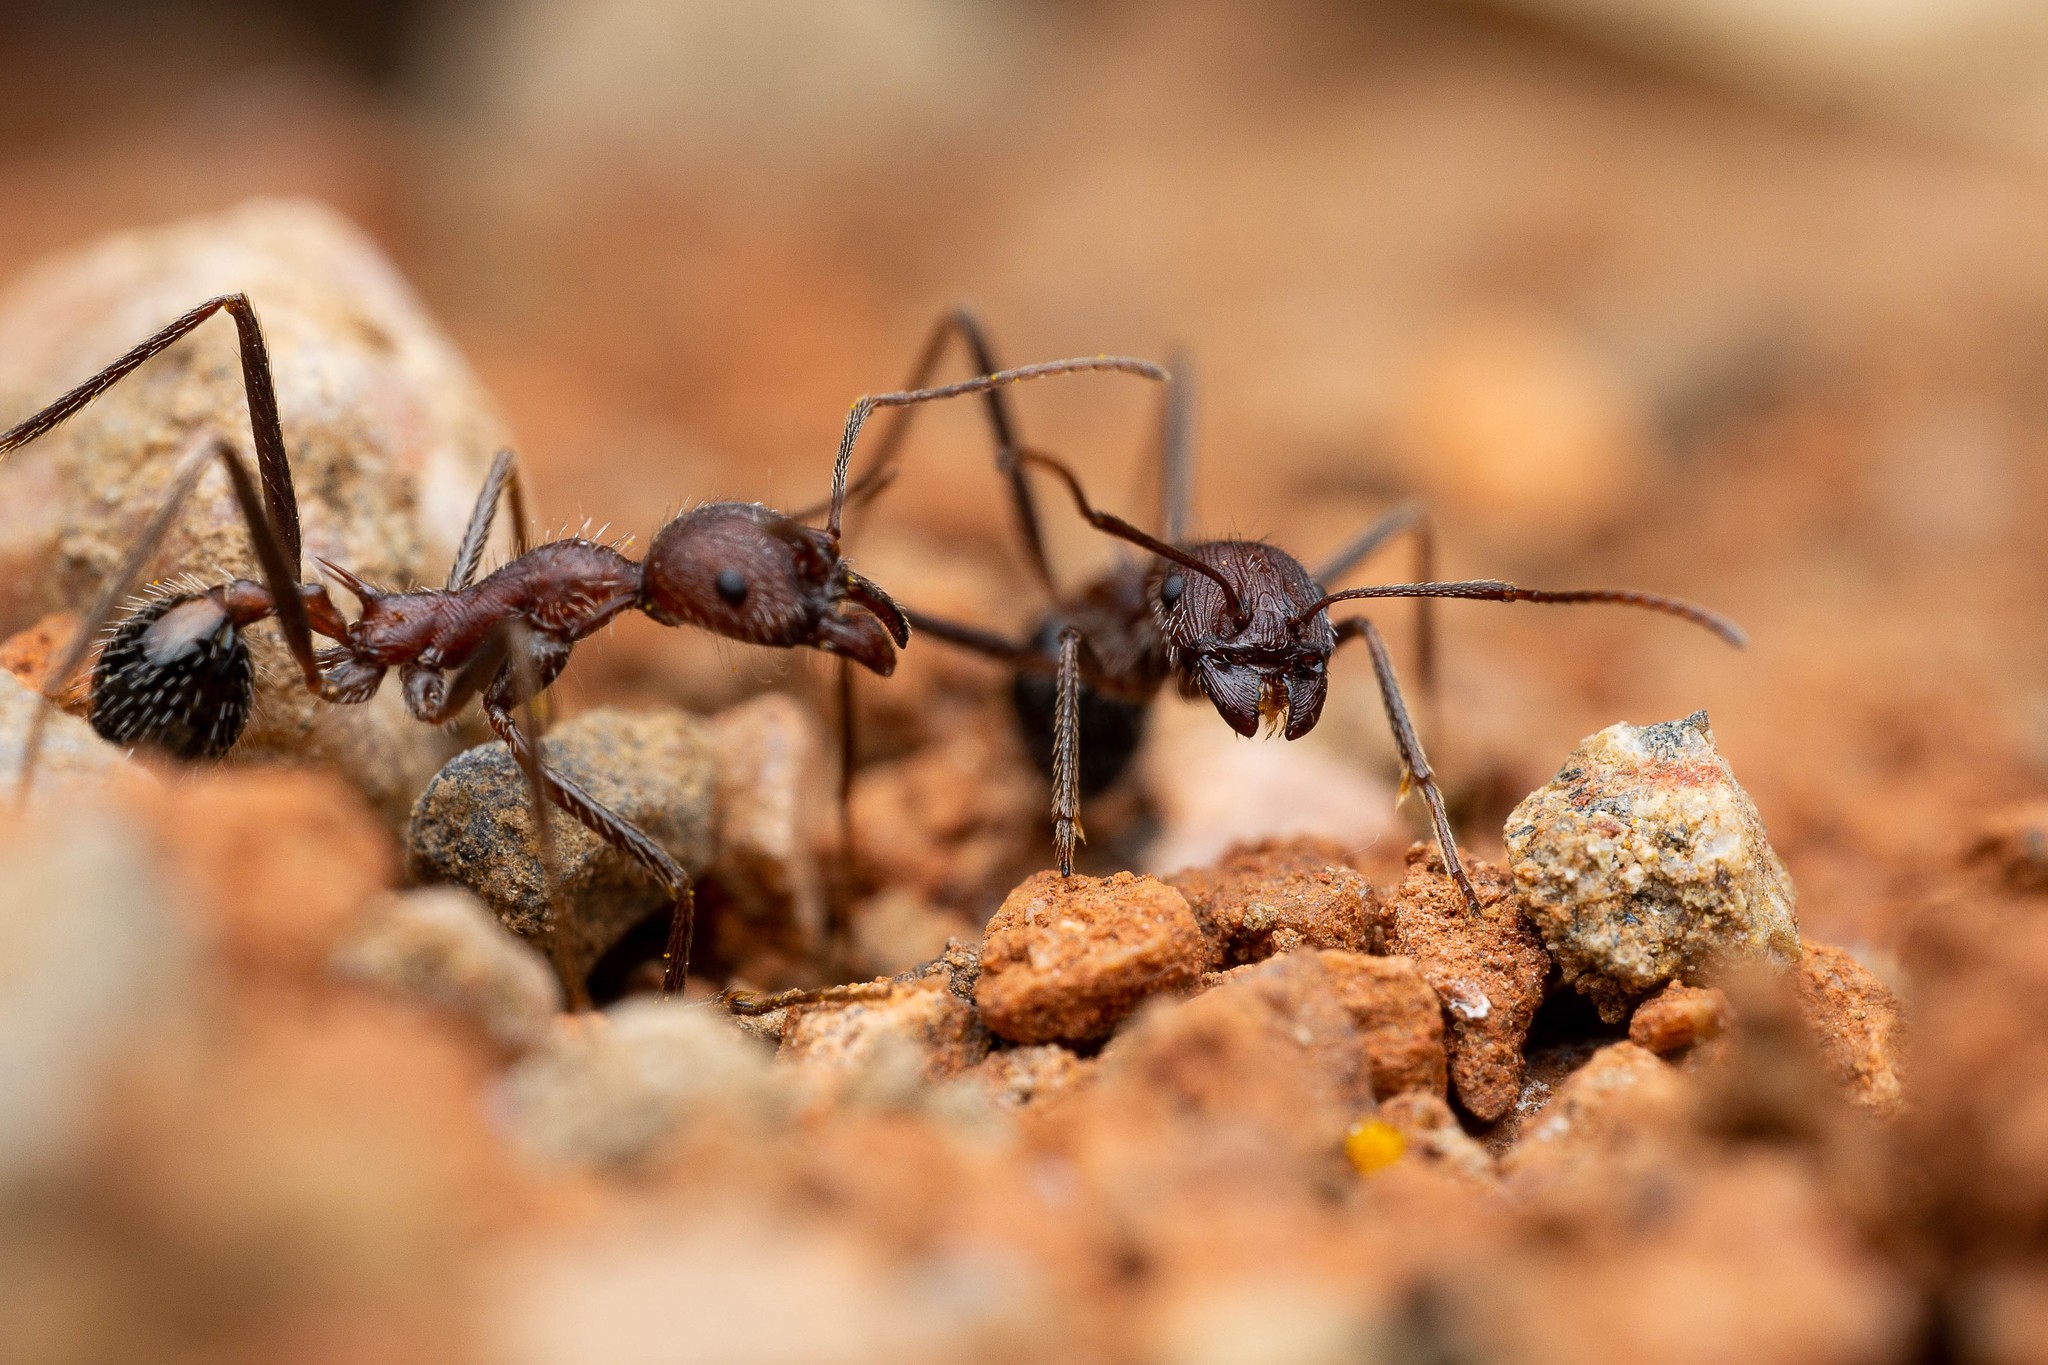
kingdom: Animalia
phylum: Arthropoda
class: Insecta
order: Hymenoptera
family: Formicidae
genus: Novomessor
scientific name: Novomessor albisetosa
